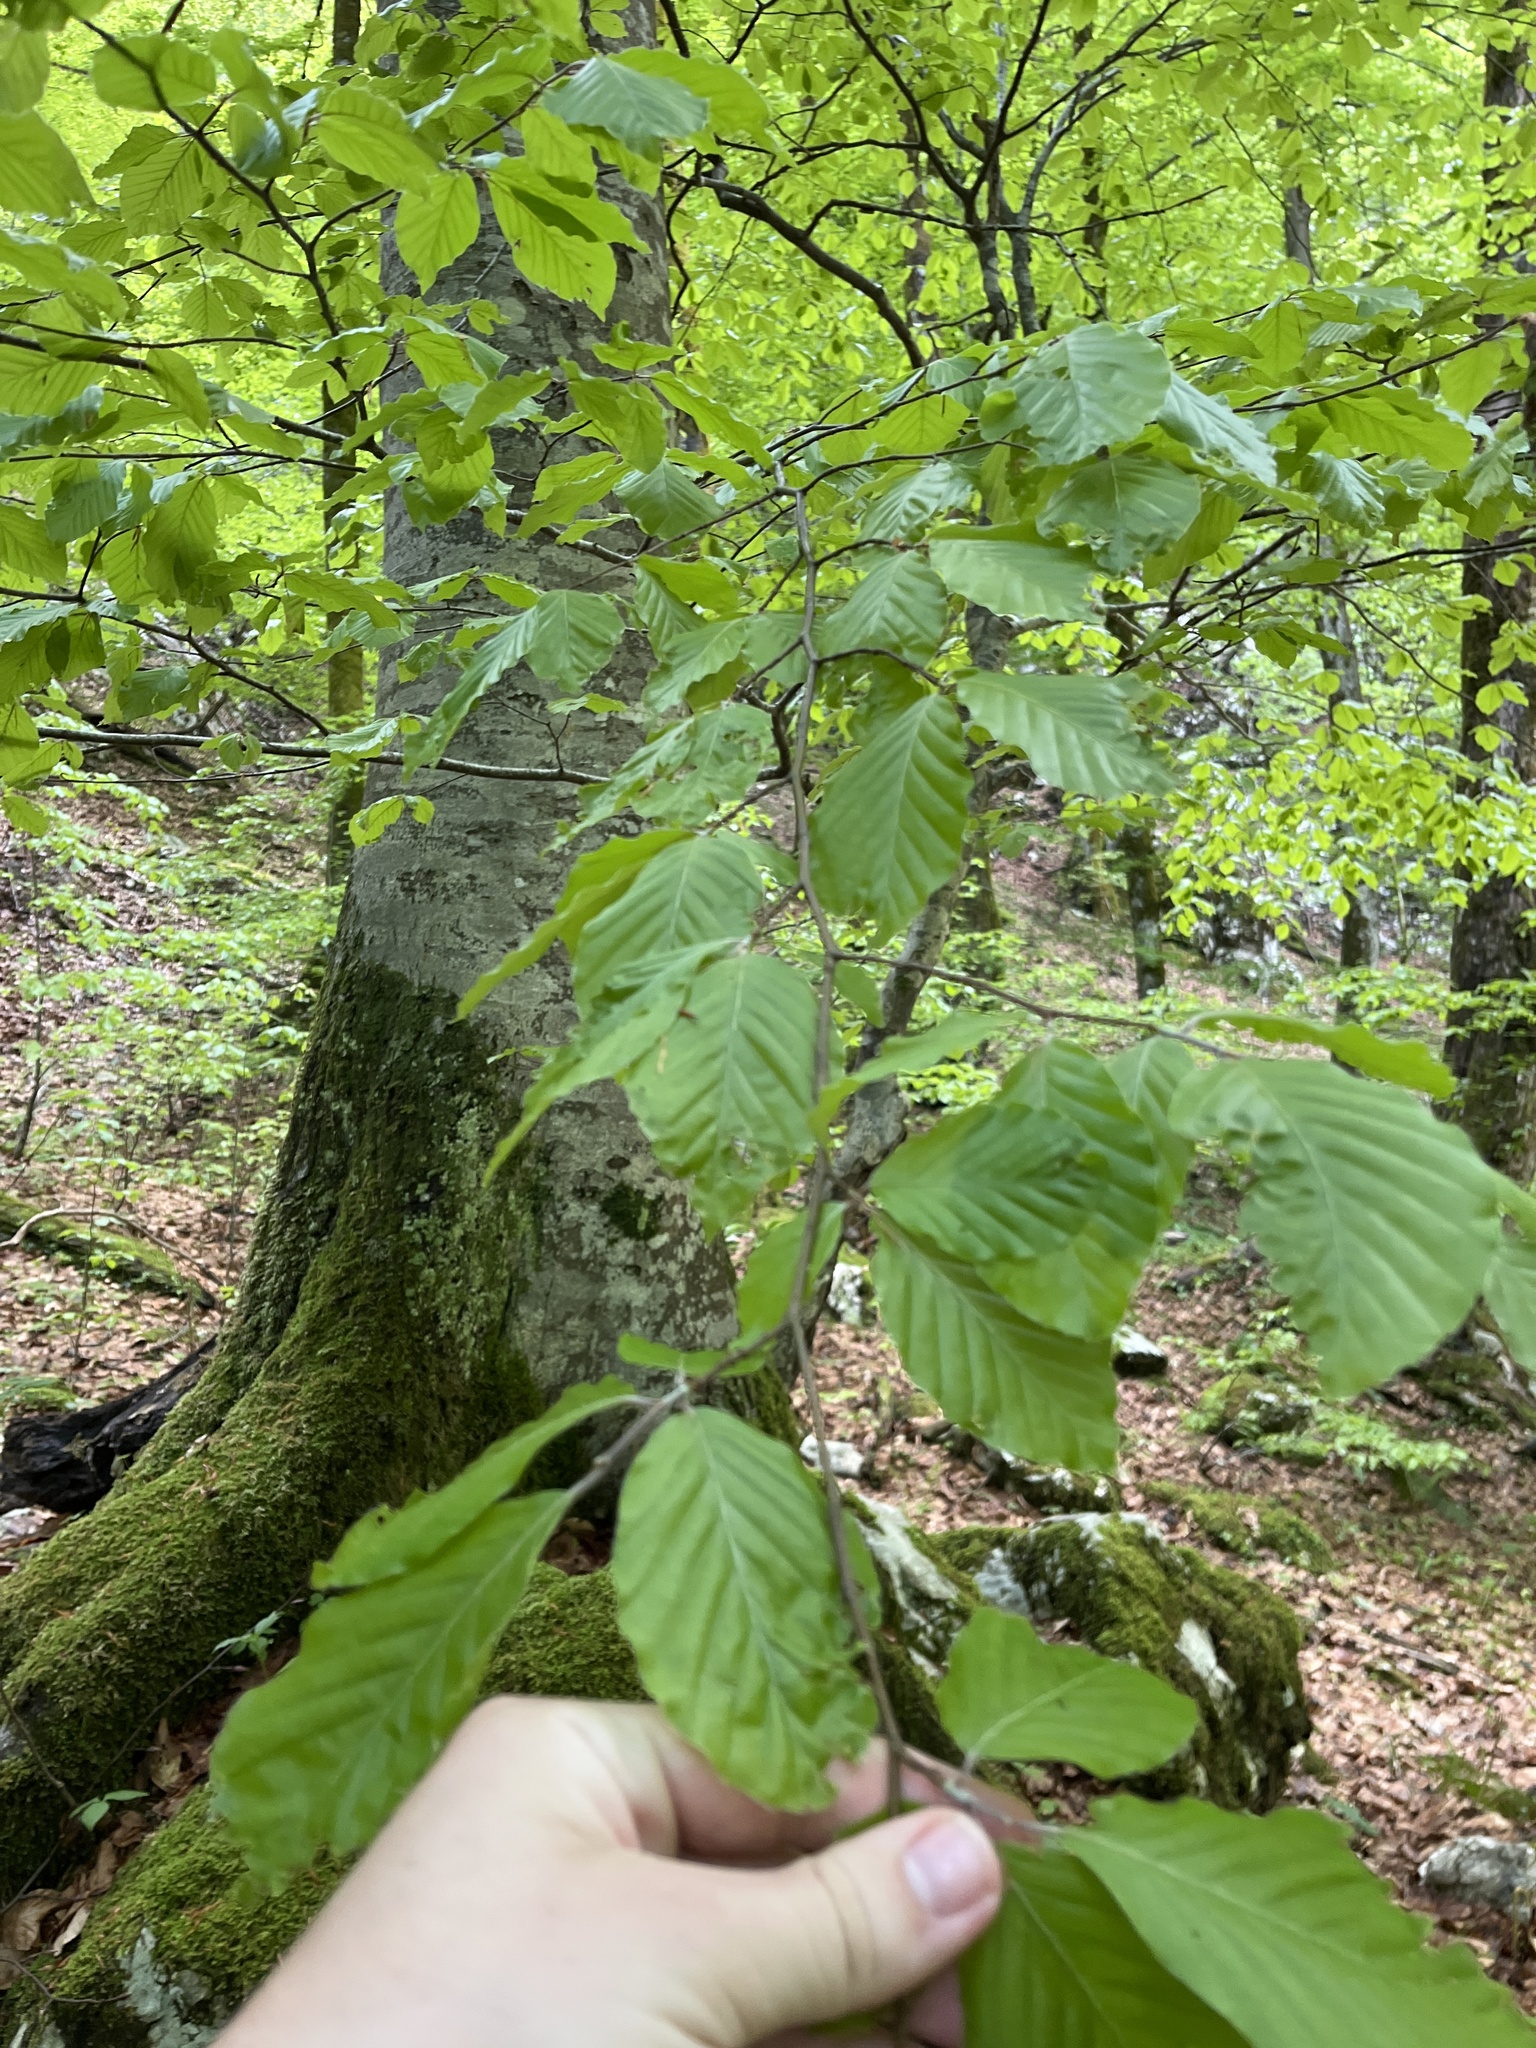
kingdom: Plantae
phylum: Tracheophyta
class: Magnoliopsida
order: Fagales
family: Fagaceae
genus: Fagus
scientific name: Fagus sylvatica
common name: Beech
